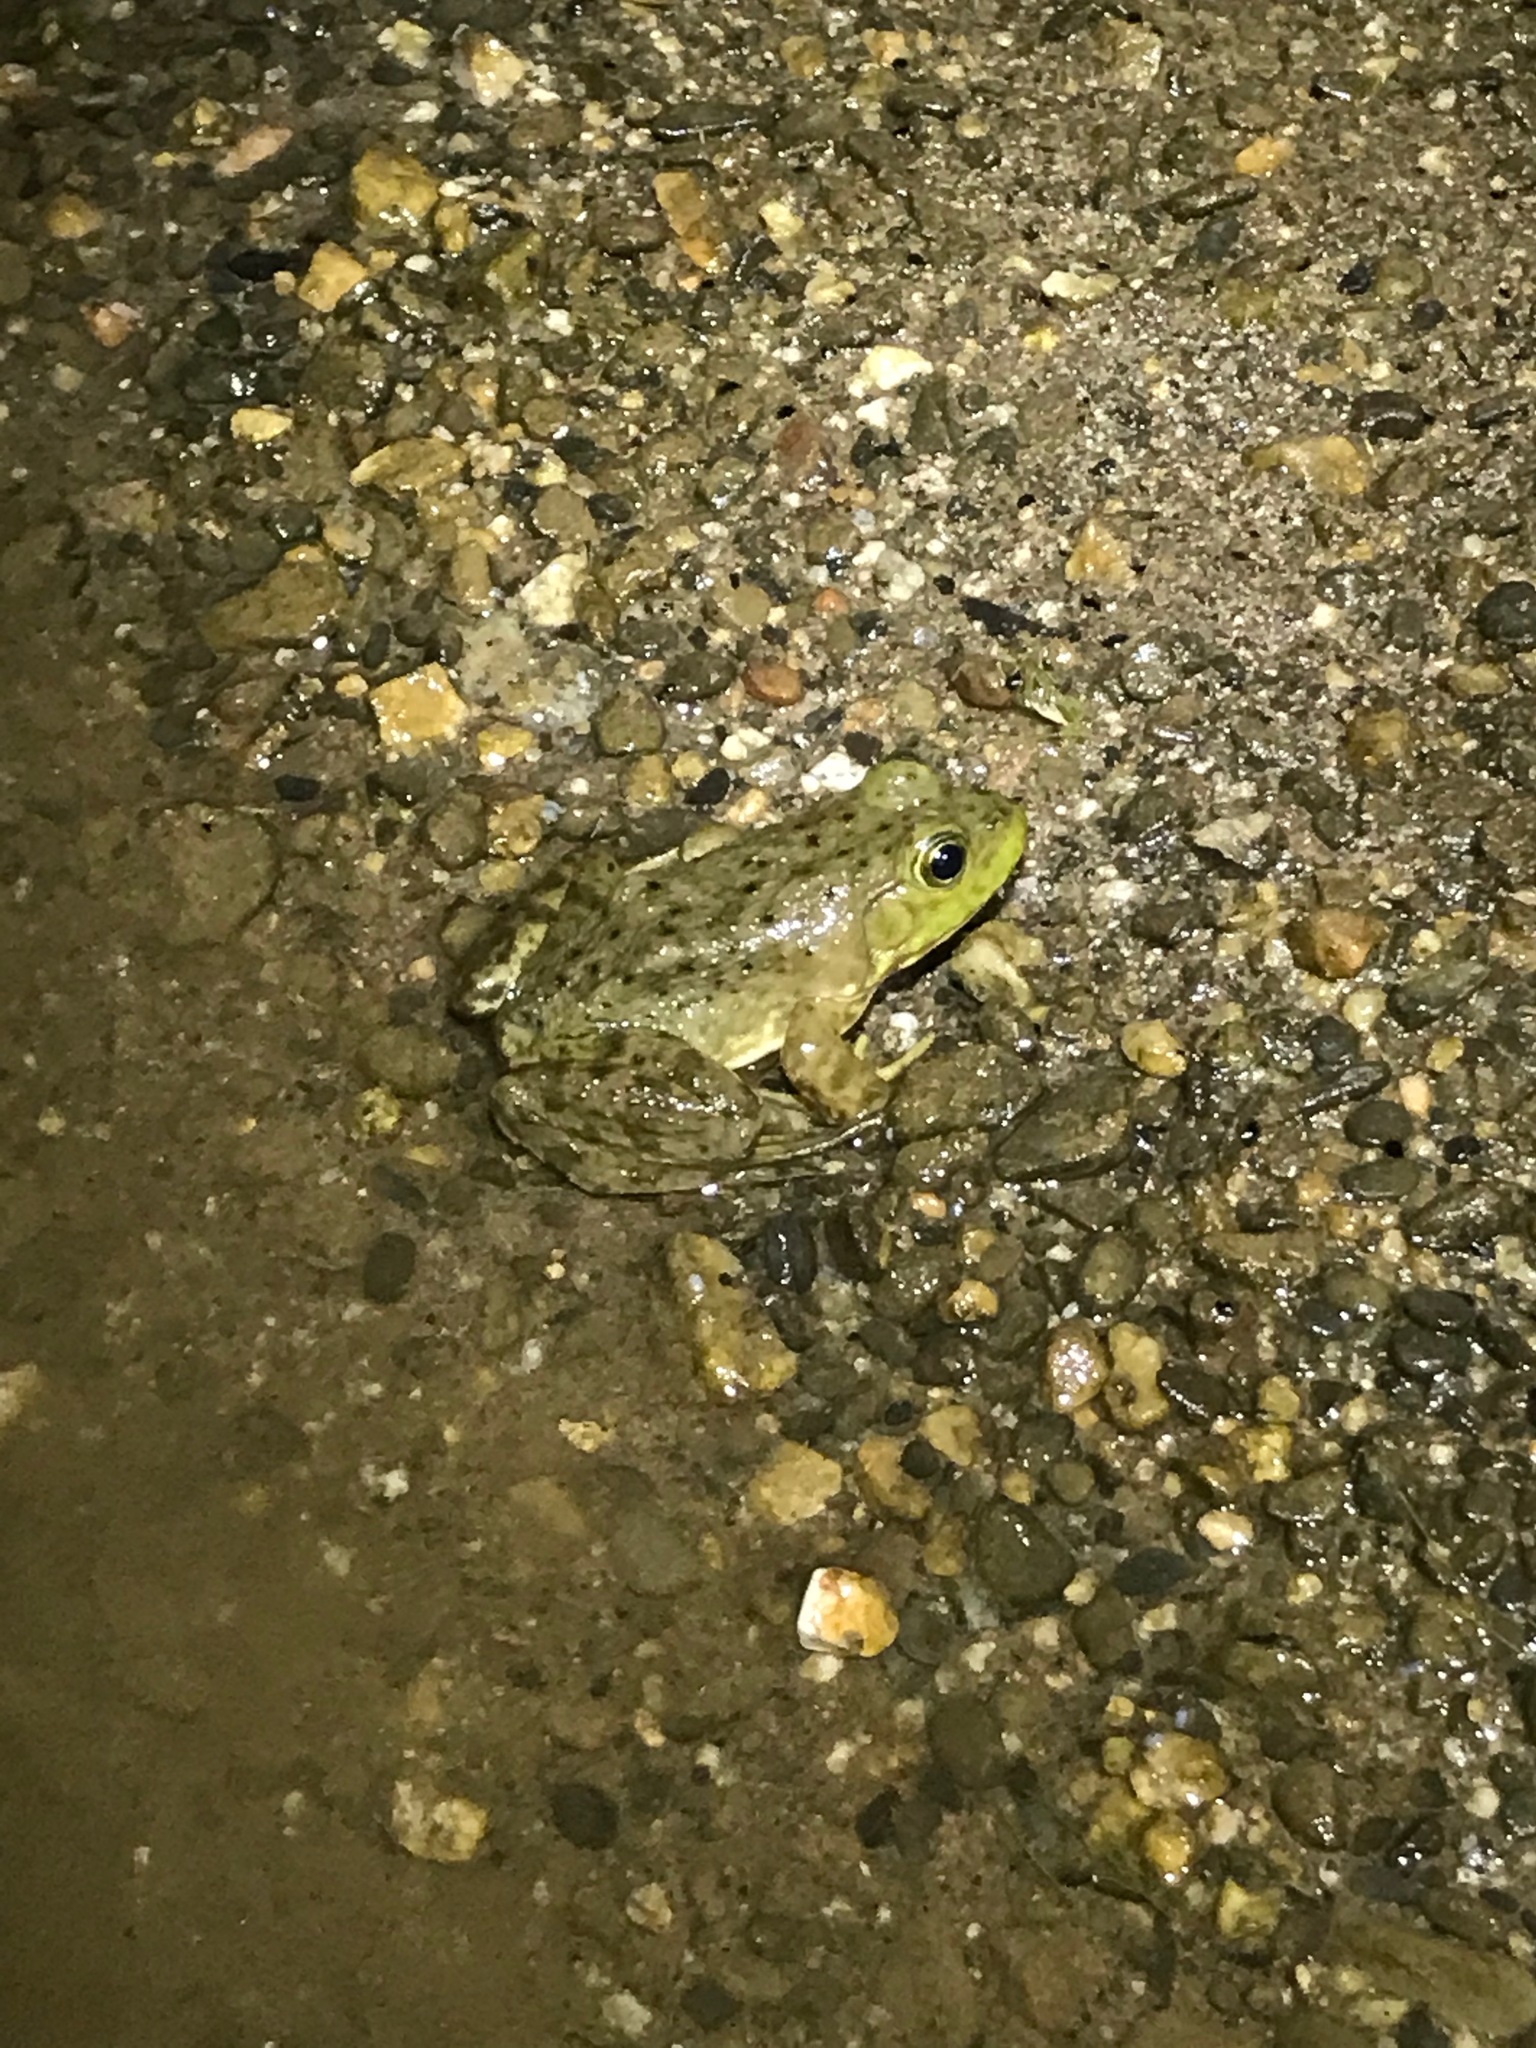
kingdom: Animalia
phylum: Chordata
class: Amphibia
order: Anura
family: Ranidae
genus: Lithobates
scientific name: Lithobates catesbeianus
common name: American bullfrog
